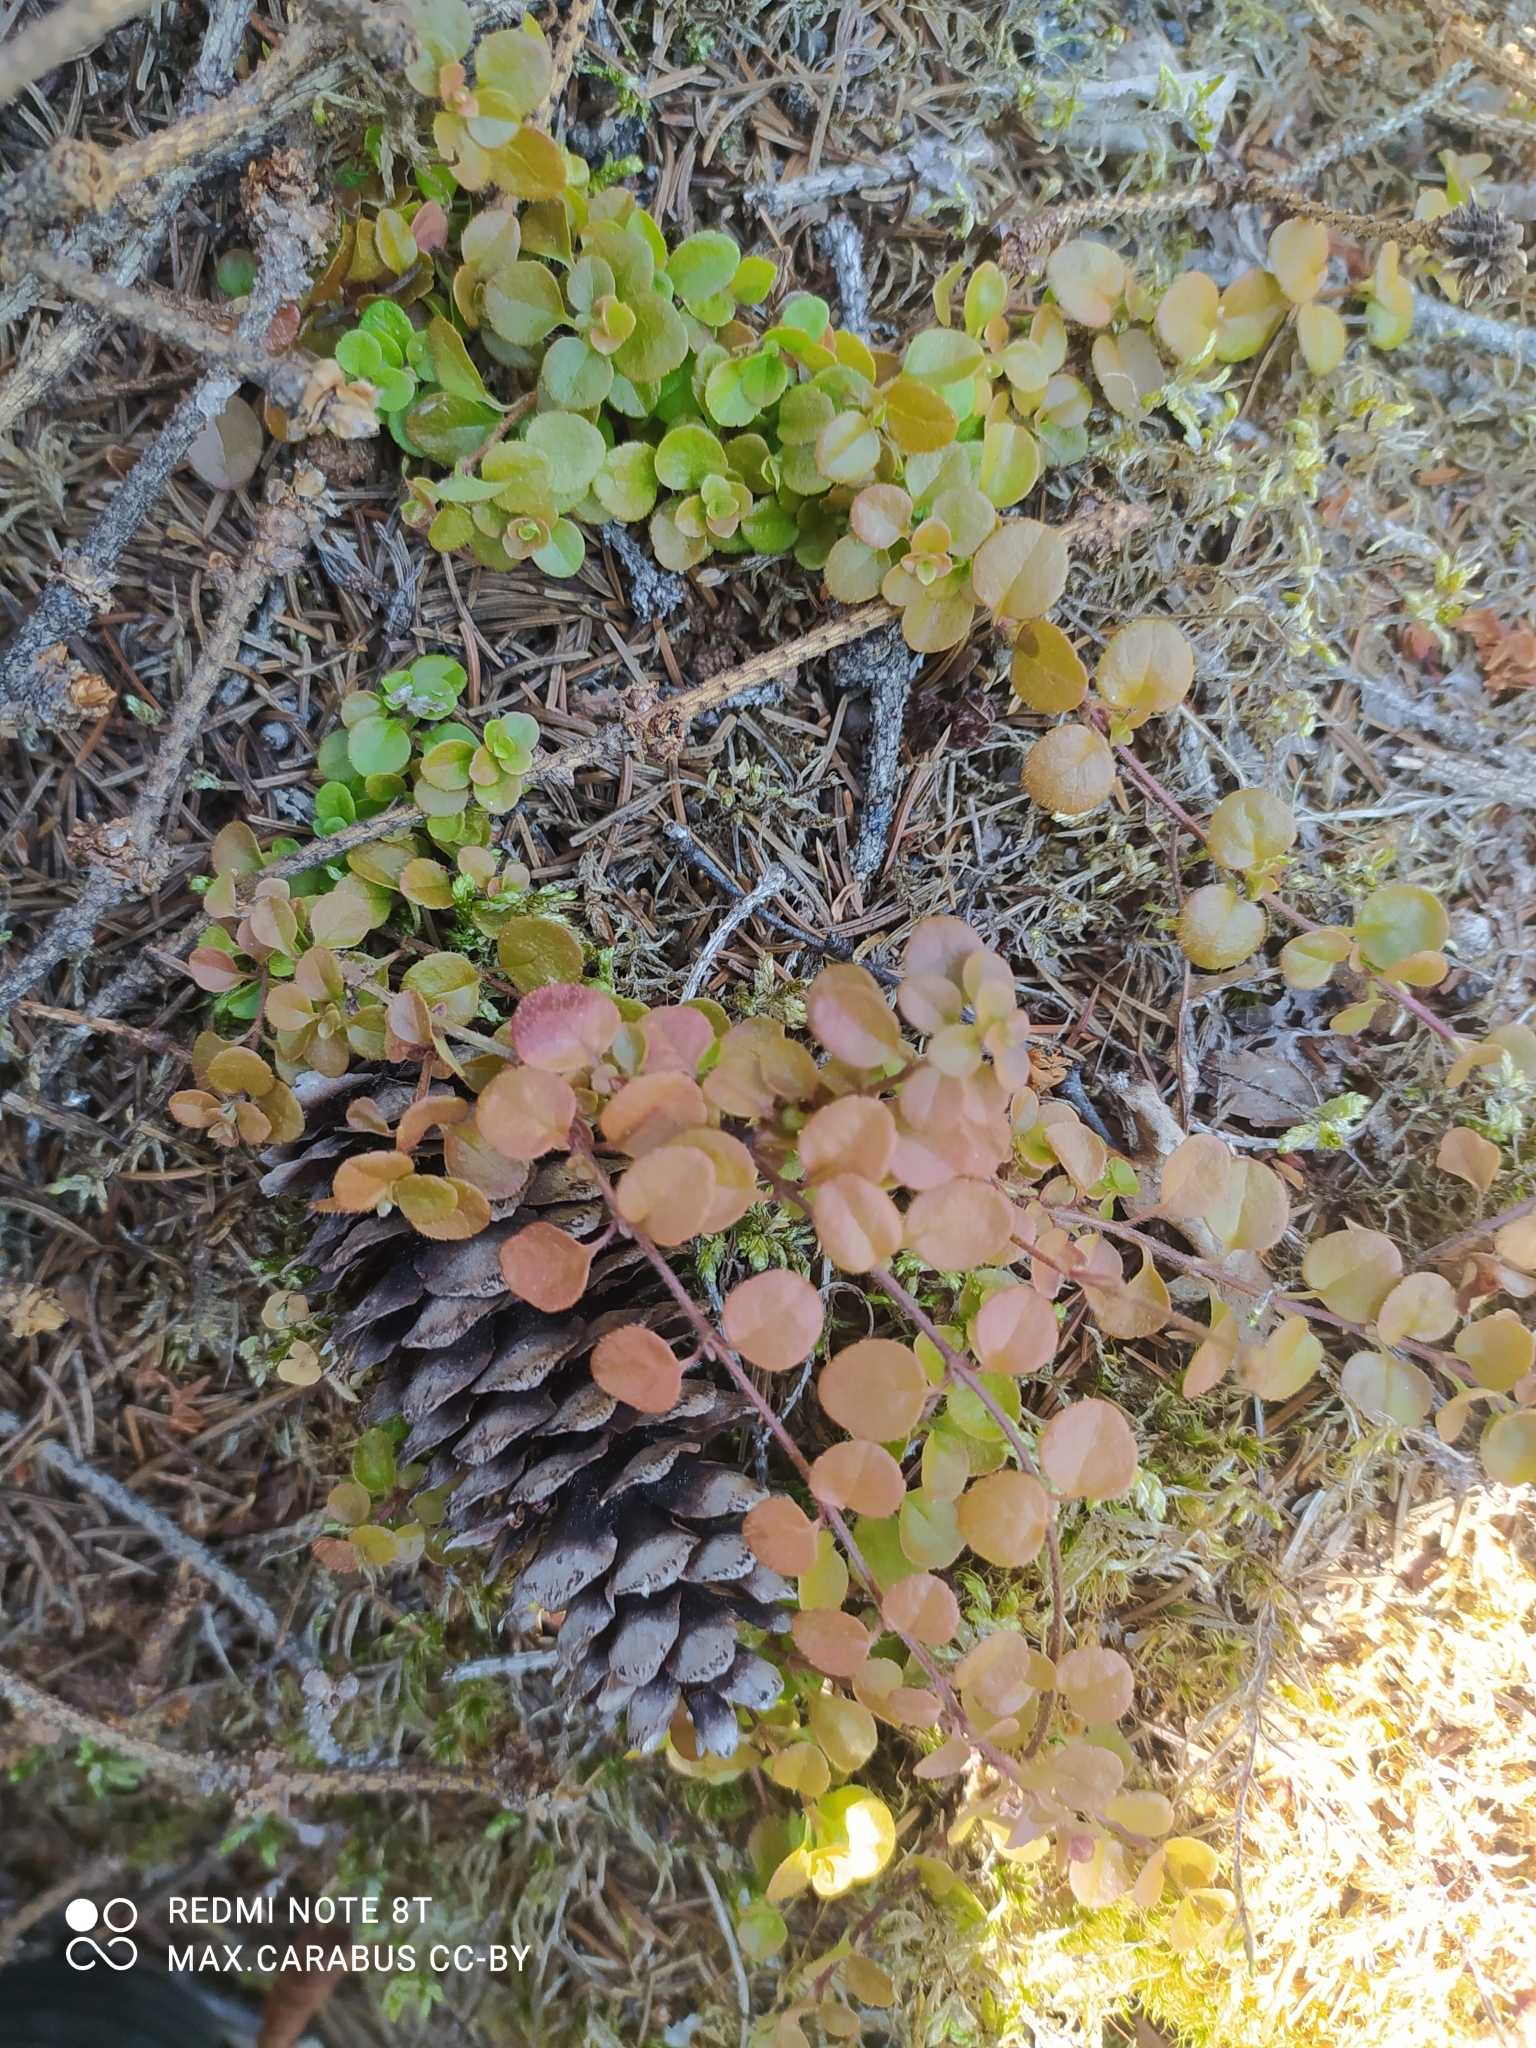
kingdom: Plantae
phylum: Tracheophyta
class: Magnoliopsida
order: Dipsacales
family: Caprifoliaceae
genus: Linnaea
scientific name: Linnaea borealis
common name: Twinflower
